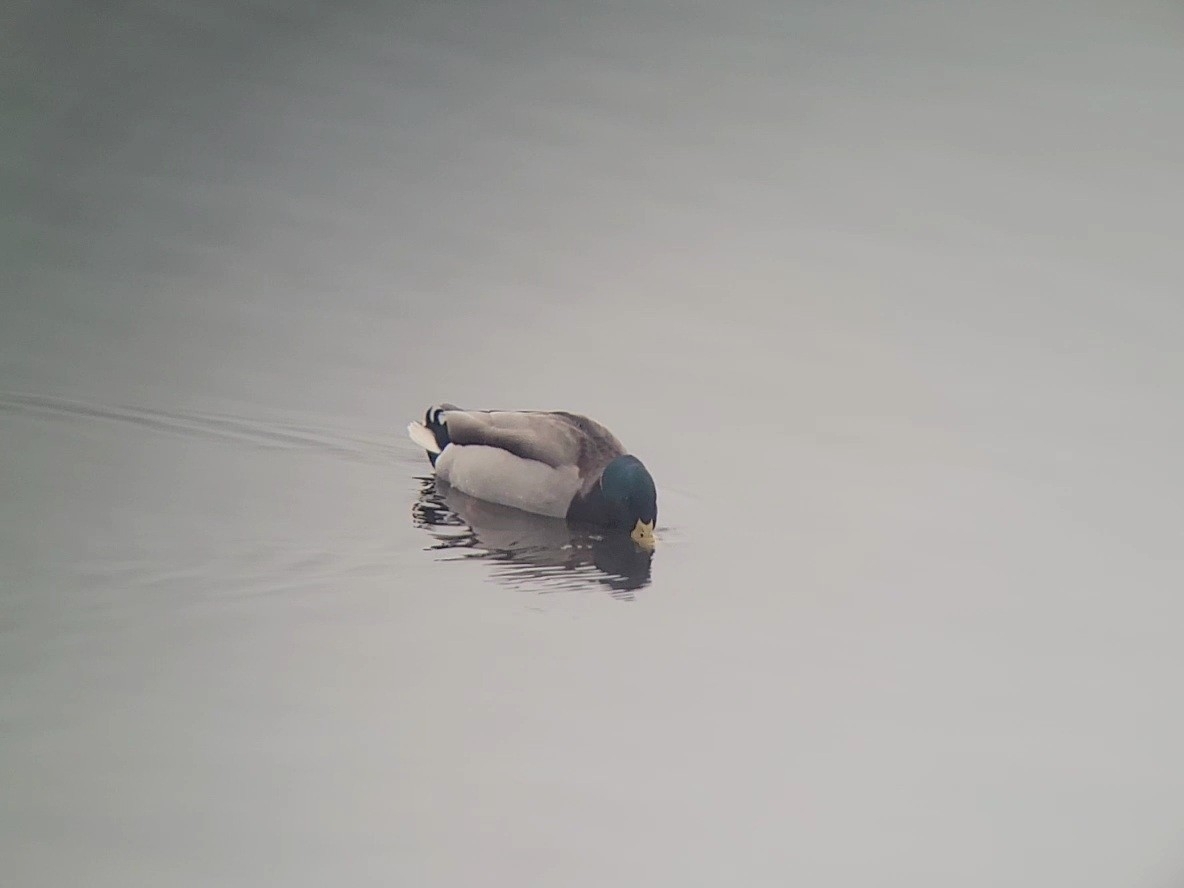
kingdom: Animalia
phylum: Chordata
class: Aves
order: Anseriformes
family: Anatidae
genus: Anas
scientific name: Anas platyrhynchos
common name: Mallard
